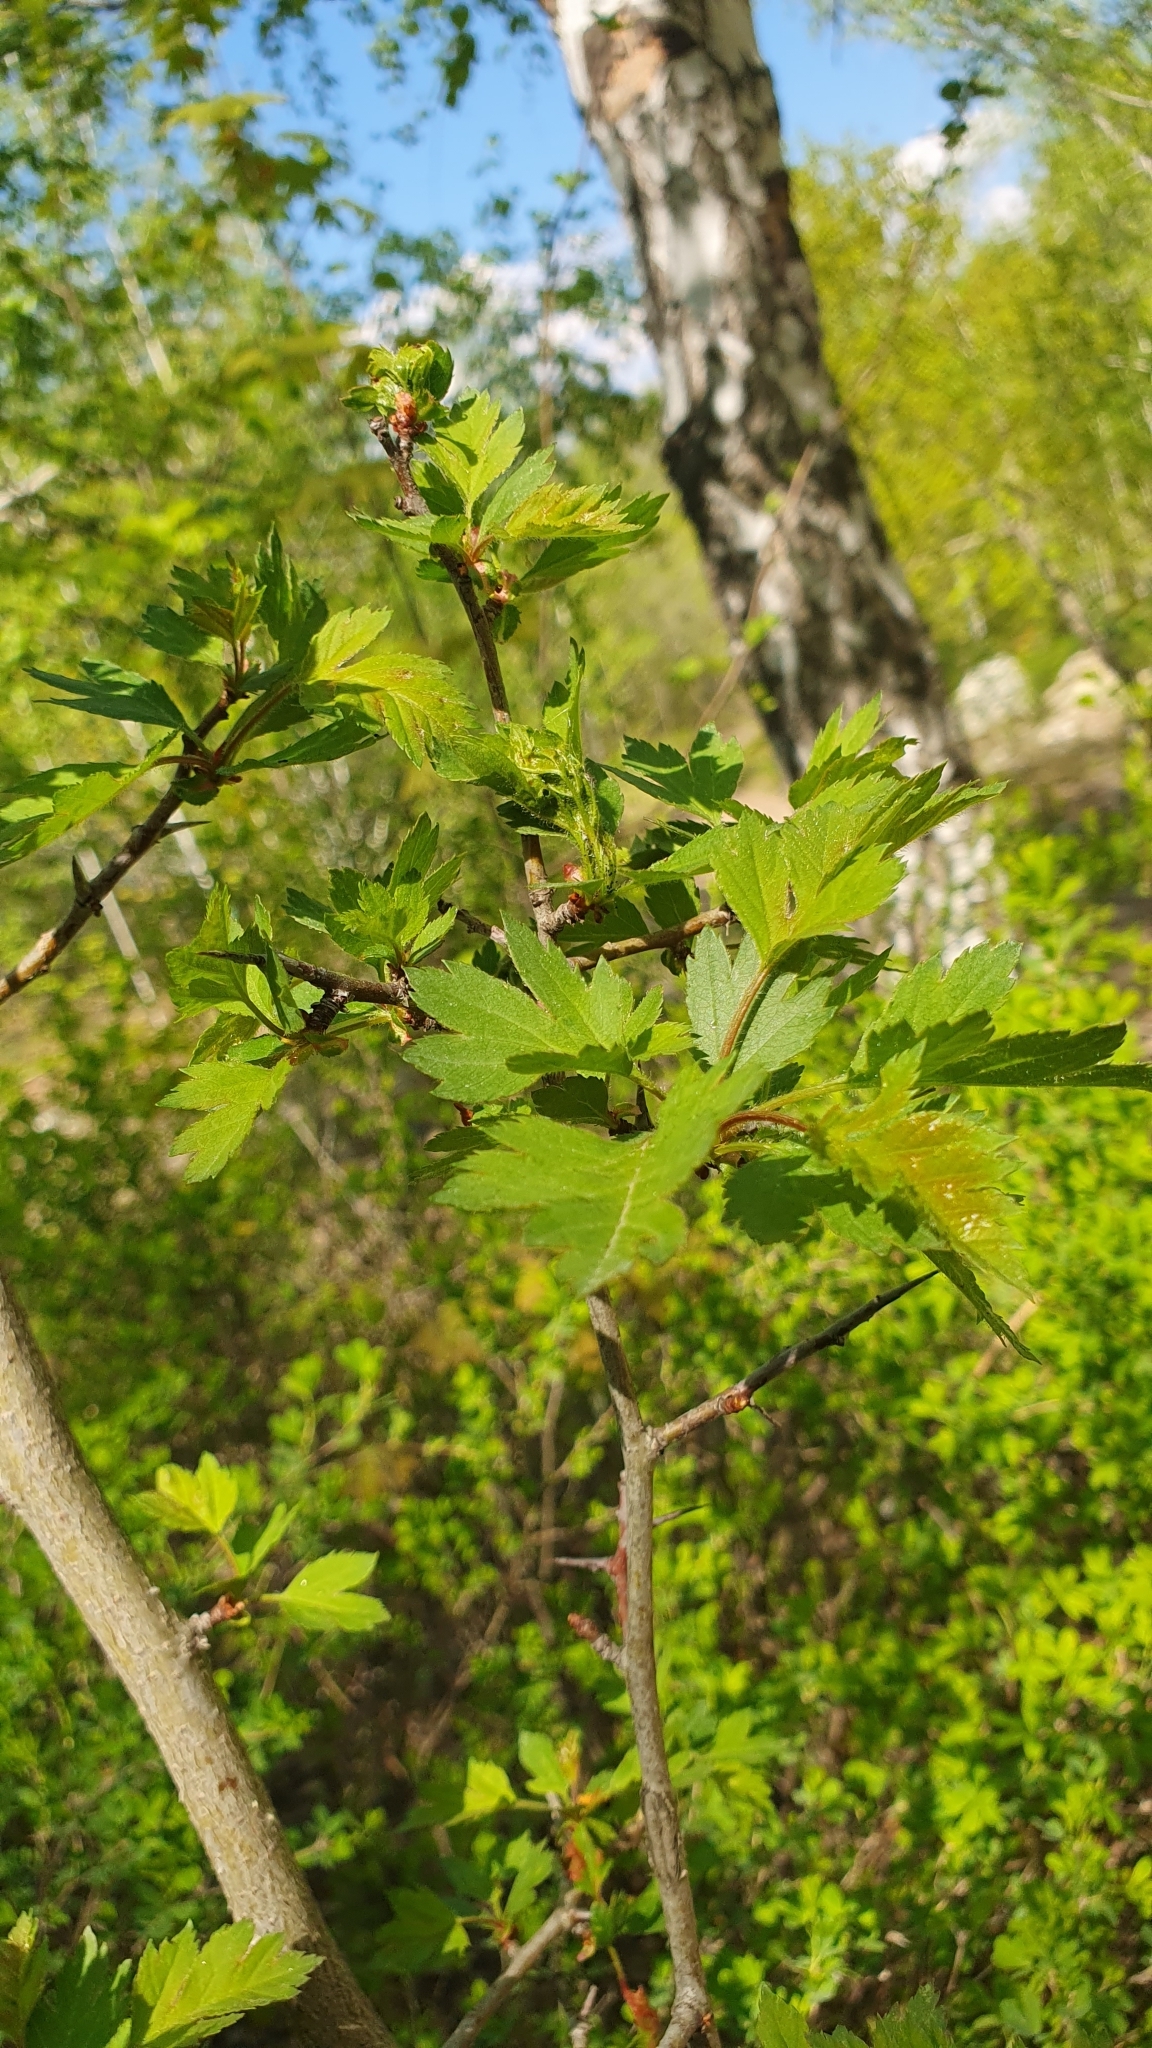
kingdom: Plantae
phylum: Tracheophyta
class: Magnoliopsida
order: Rosales
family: Rosaceae
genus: Crataegus
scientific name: Crataegus monogyna
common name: Hawthorn
